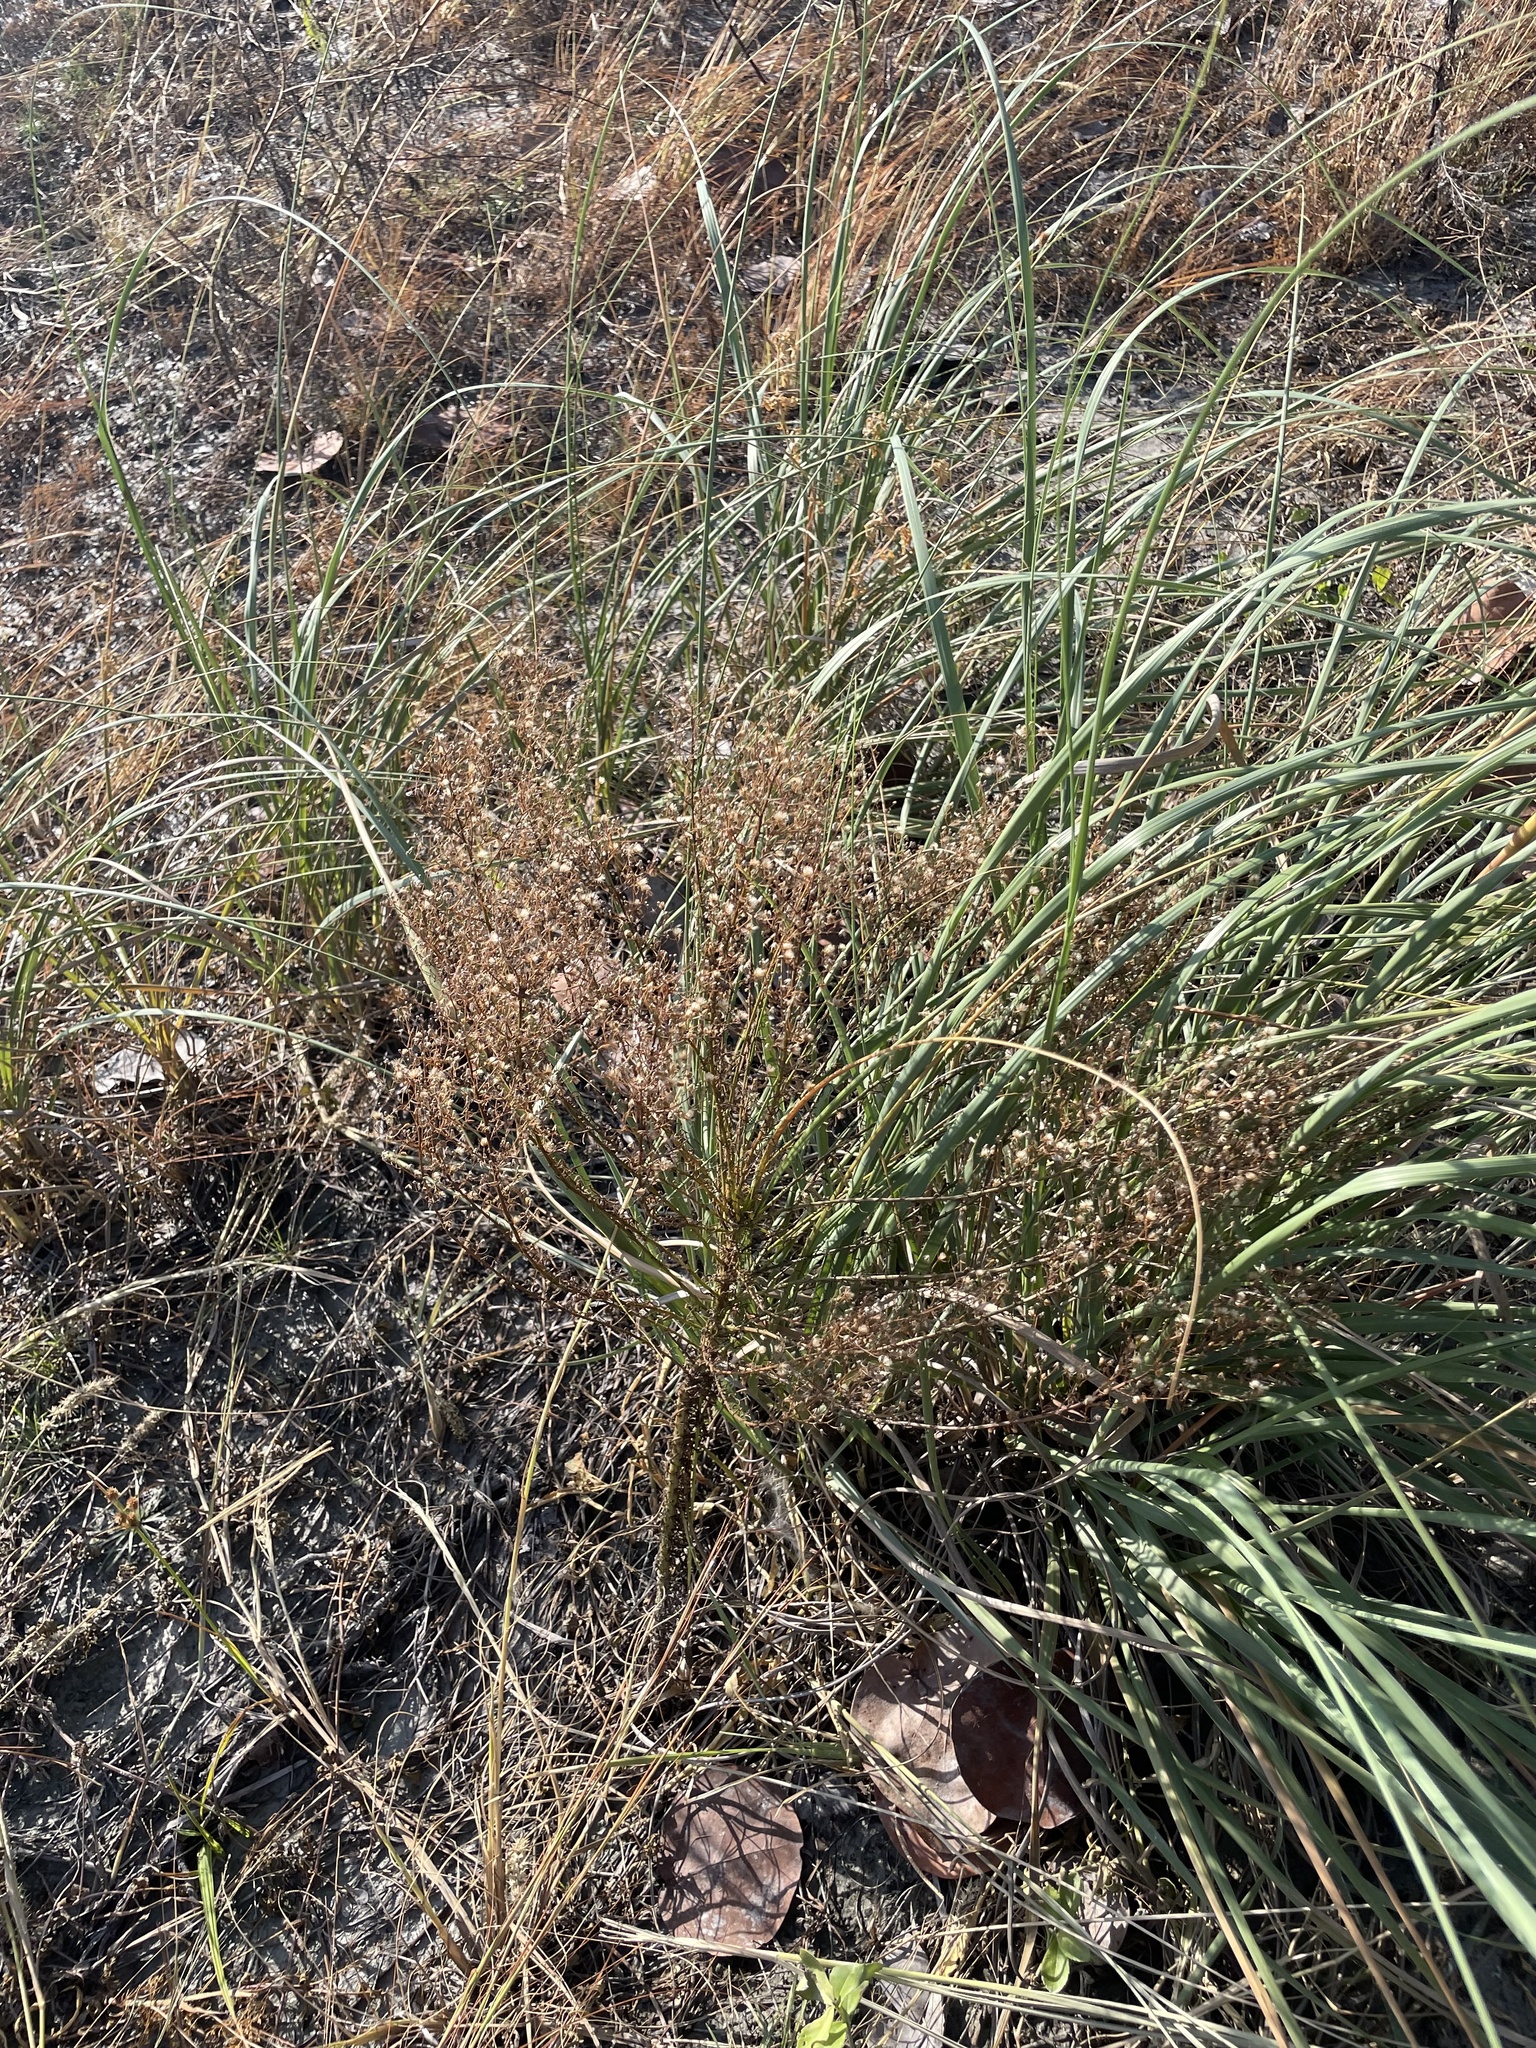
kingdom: Plantae
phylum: Tracheophyta
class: Magnoliopsida
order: Asterales
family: Asteraceae
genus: Erigeron
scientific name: Erigeron canadensis
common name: Canadian fleabane
